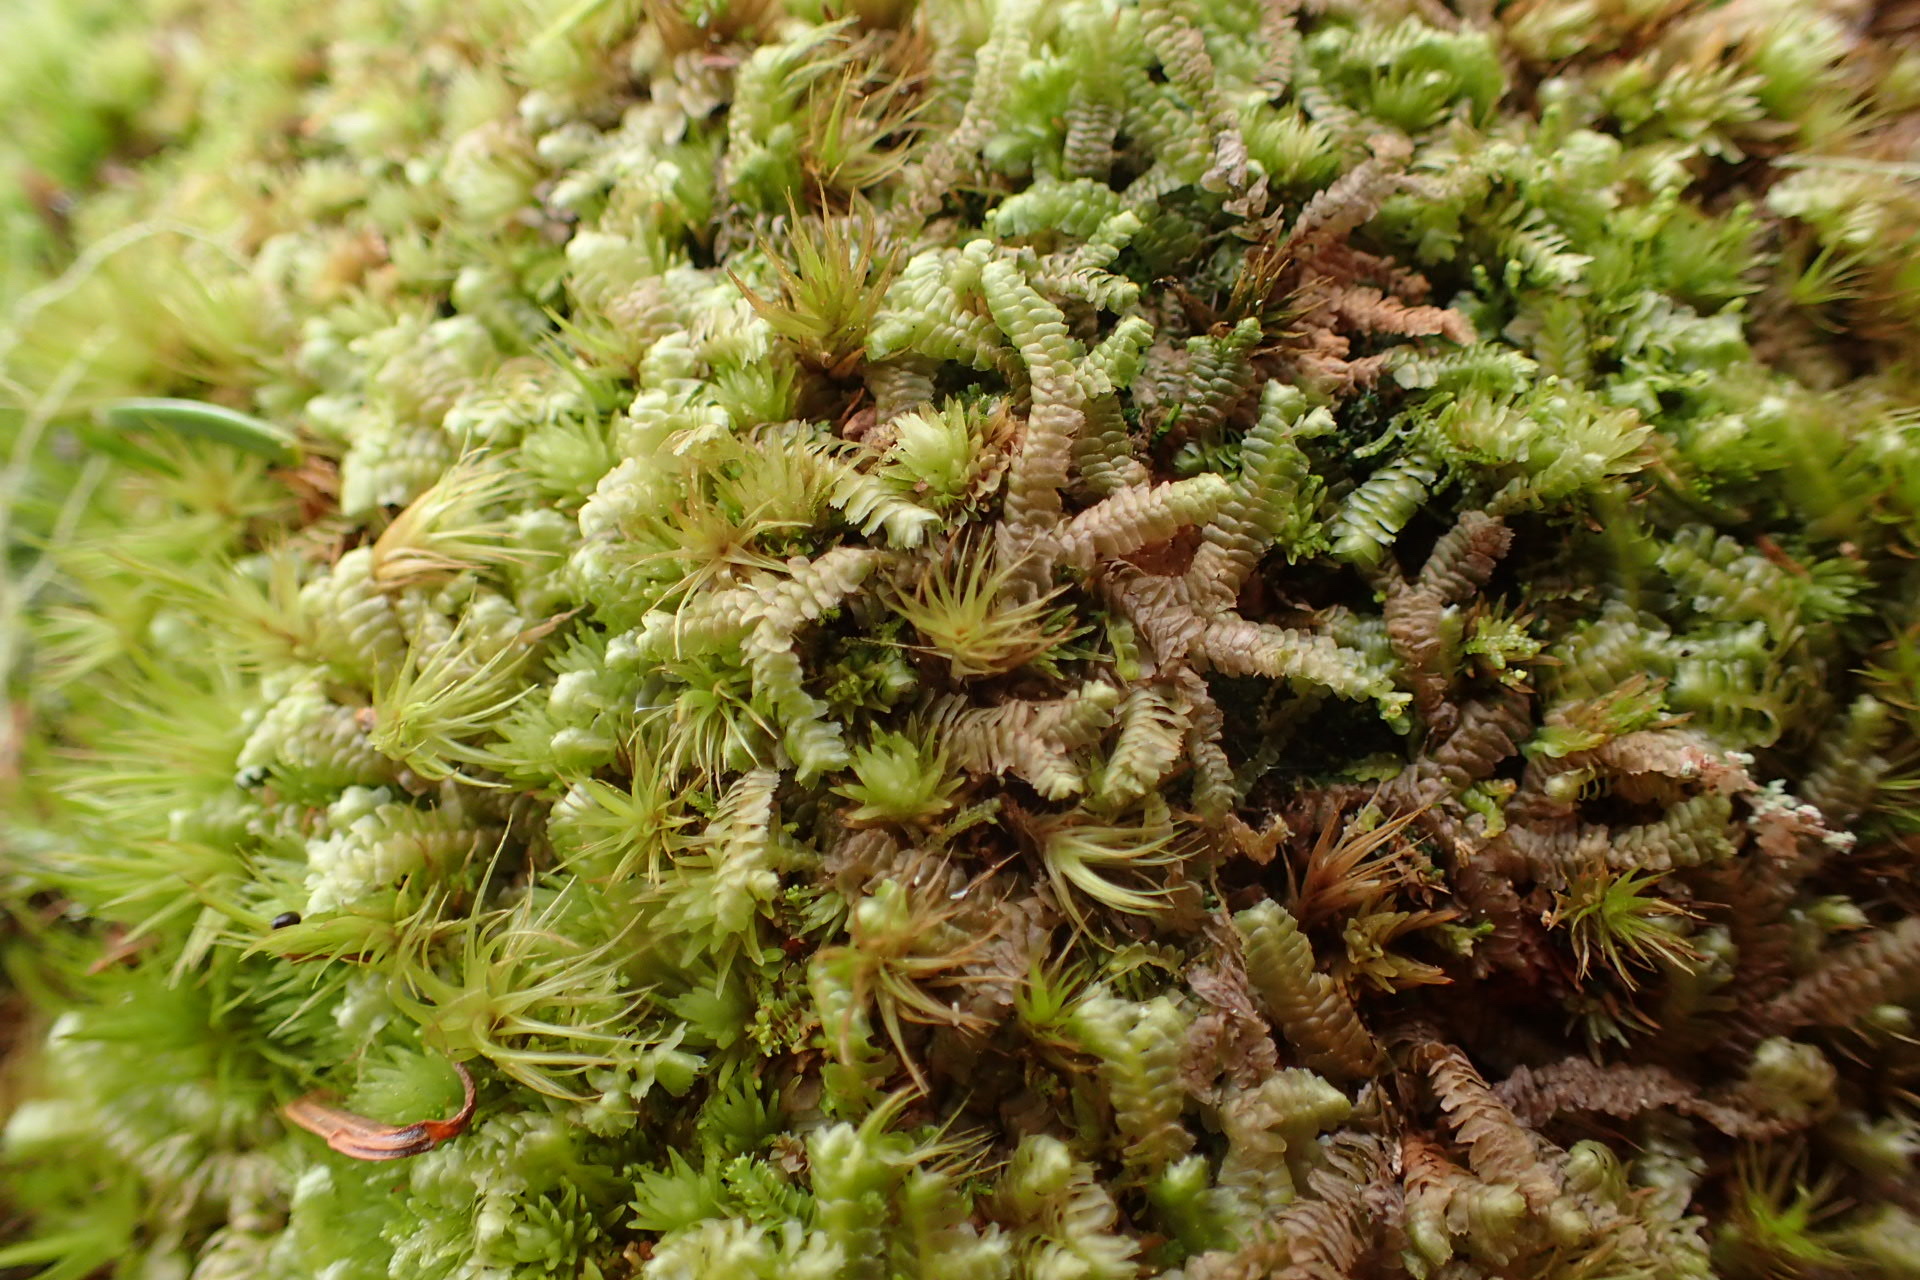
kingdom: Plantae
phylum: Marchantiophyta
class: Jungermanniopsida
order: Jungermanniales
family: Lepidoziaceae
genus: Bazzania
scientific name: Bazzania trilobata
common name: Three-lobed whipwort
